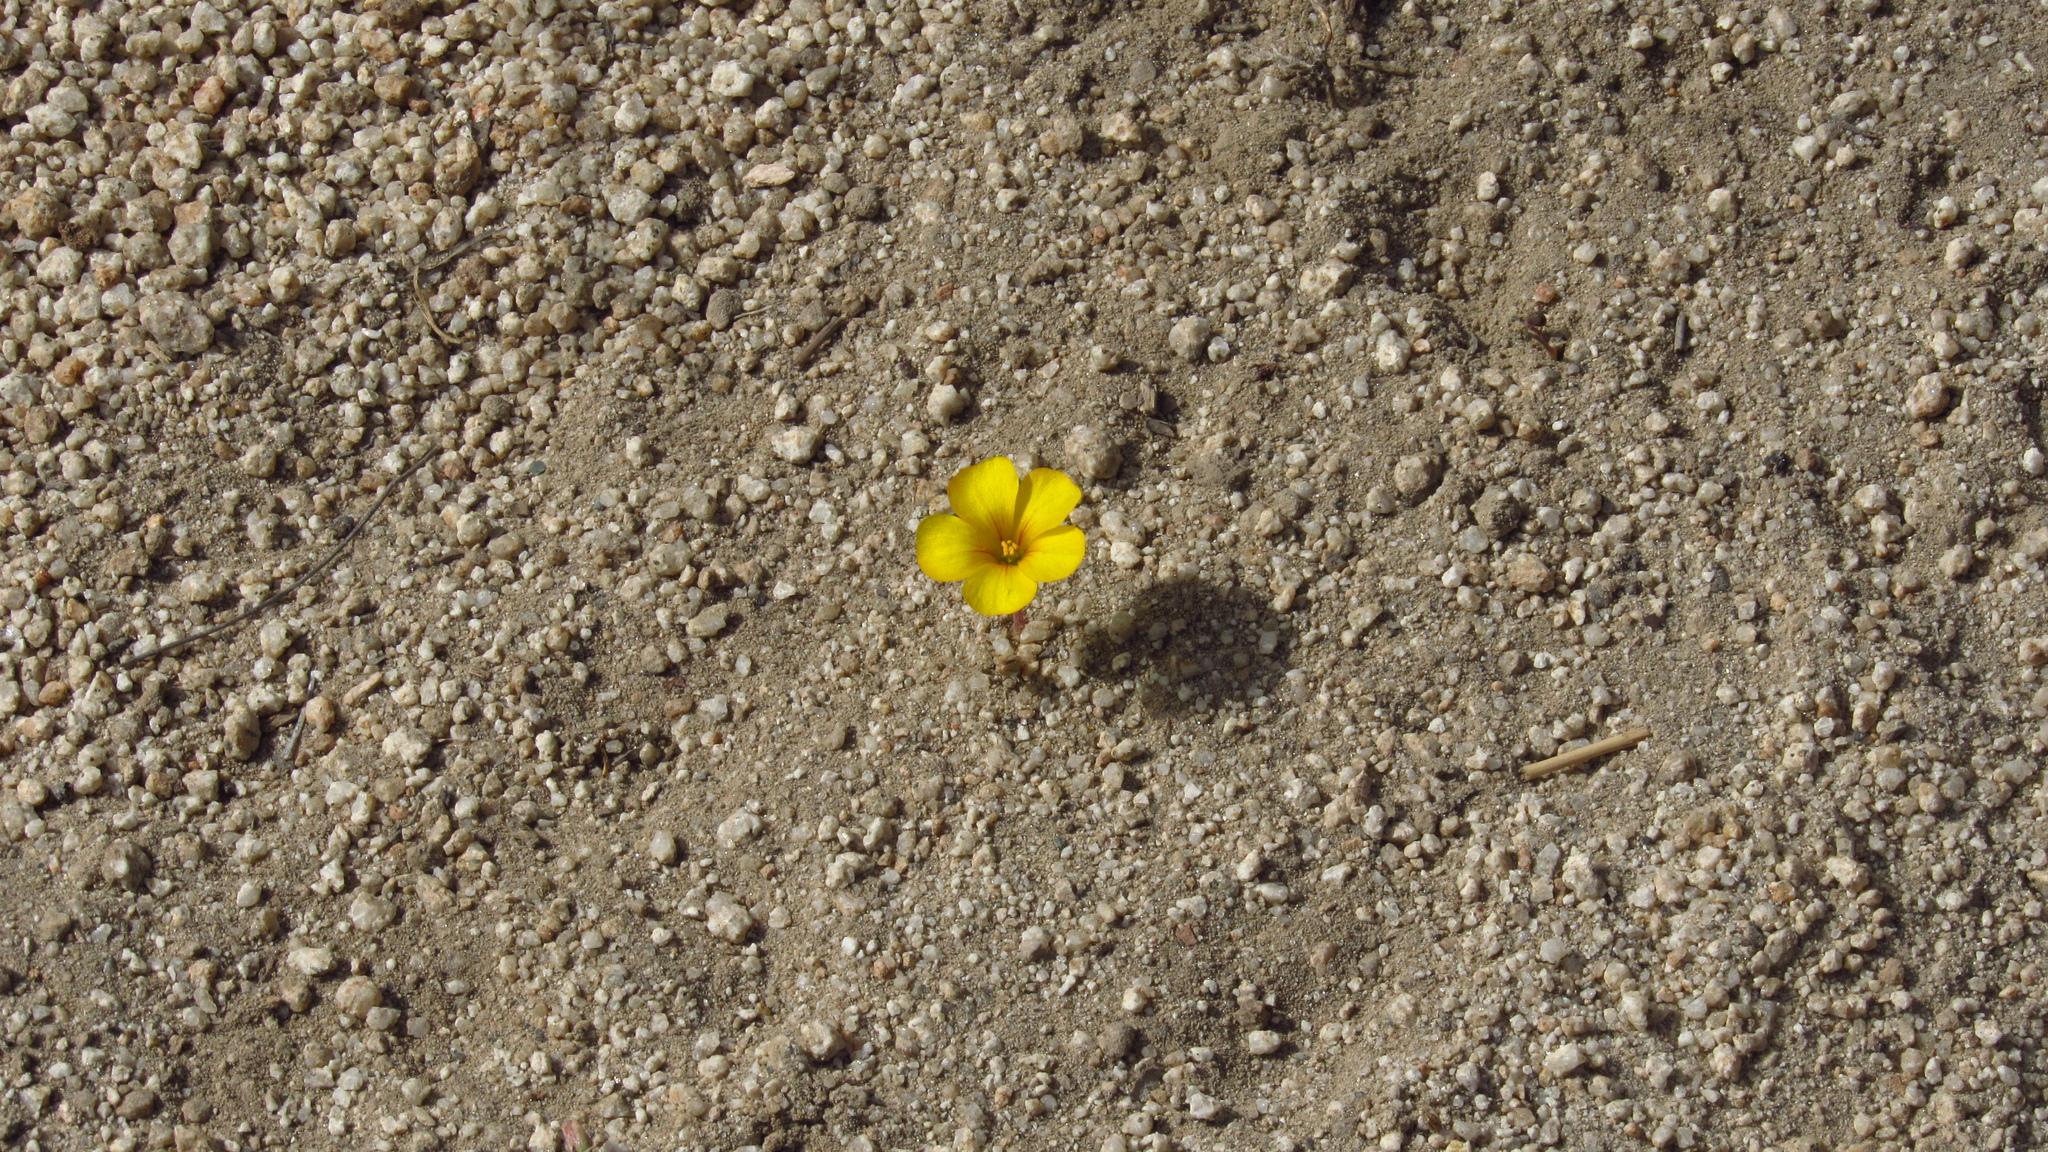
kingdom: Plantae
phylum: Tracheophyta
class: Magnoliopsida
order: Oxalidales
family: Oxalidaceae
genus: Oxalis
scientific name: Oxalis perdicaria
